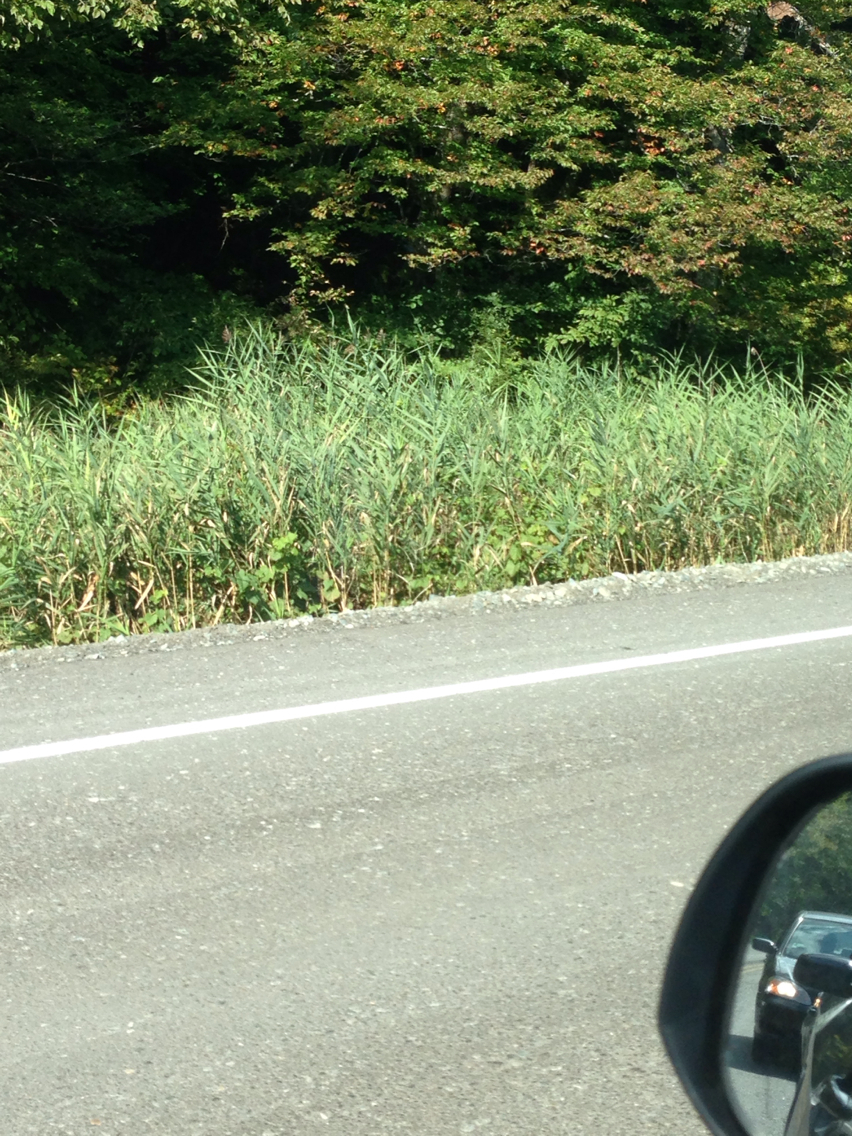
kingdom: Plantae
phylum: Tracheophyta
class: Liliopsida
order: Poales
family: Poaceae
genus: Phragmites
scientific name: Phragmites australis
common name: Common reed
